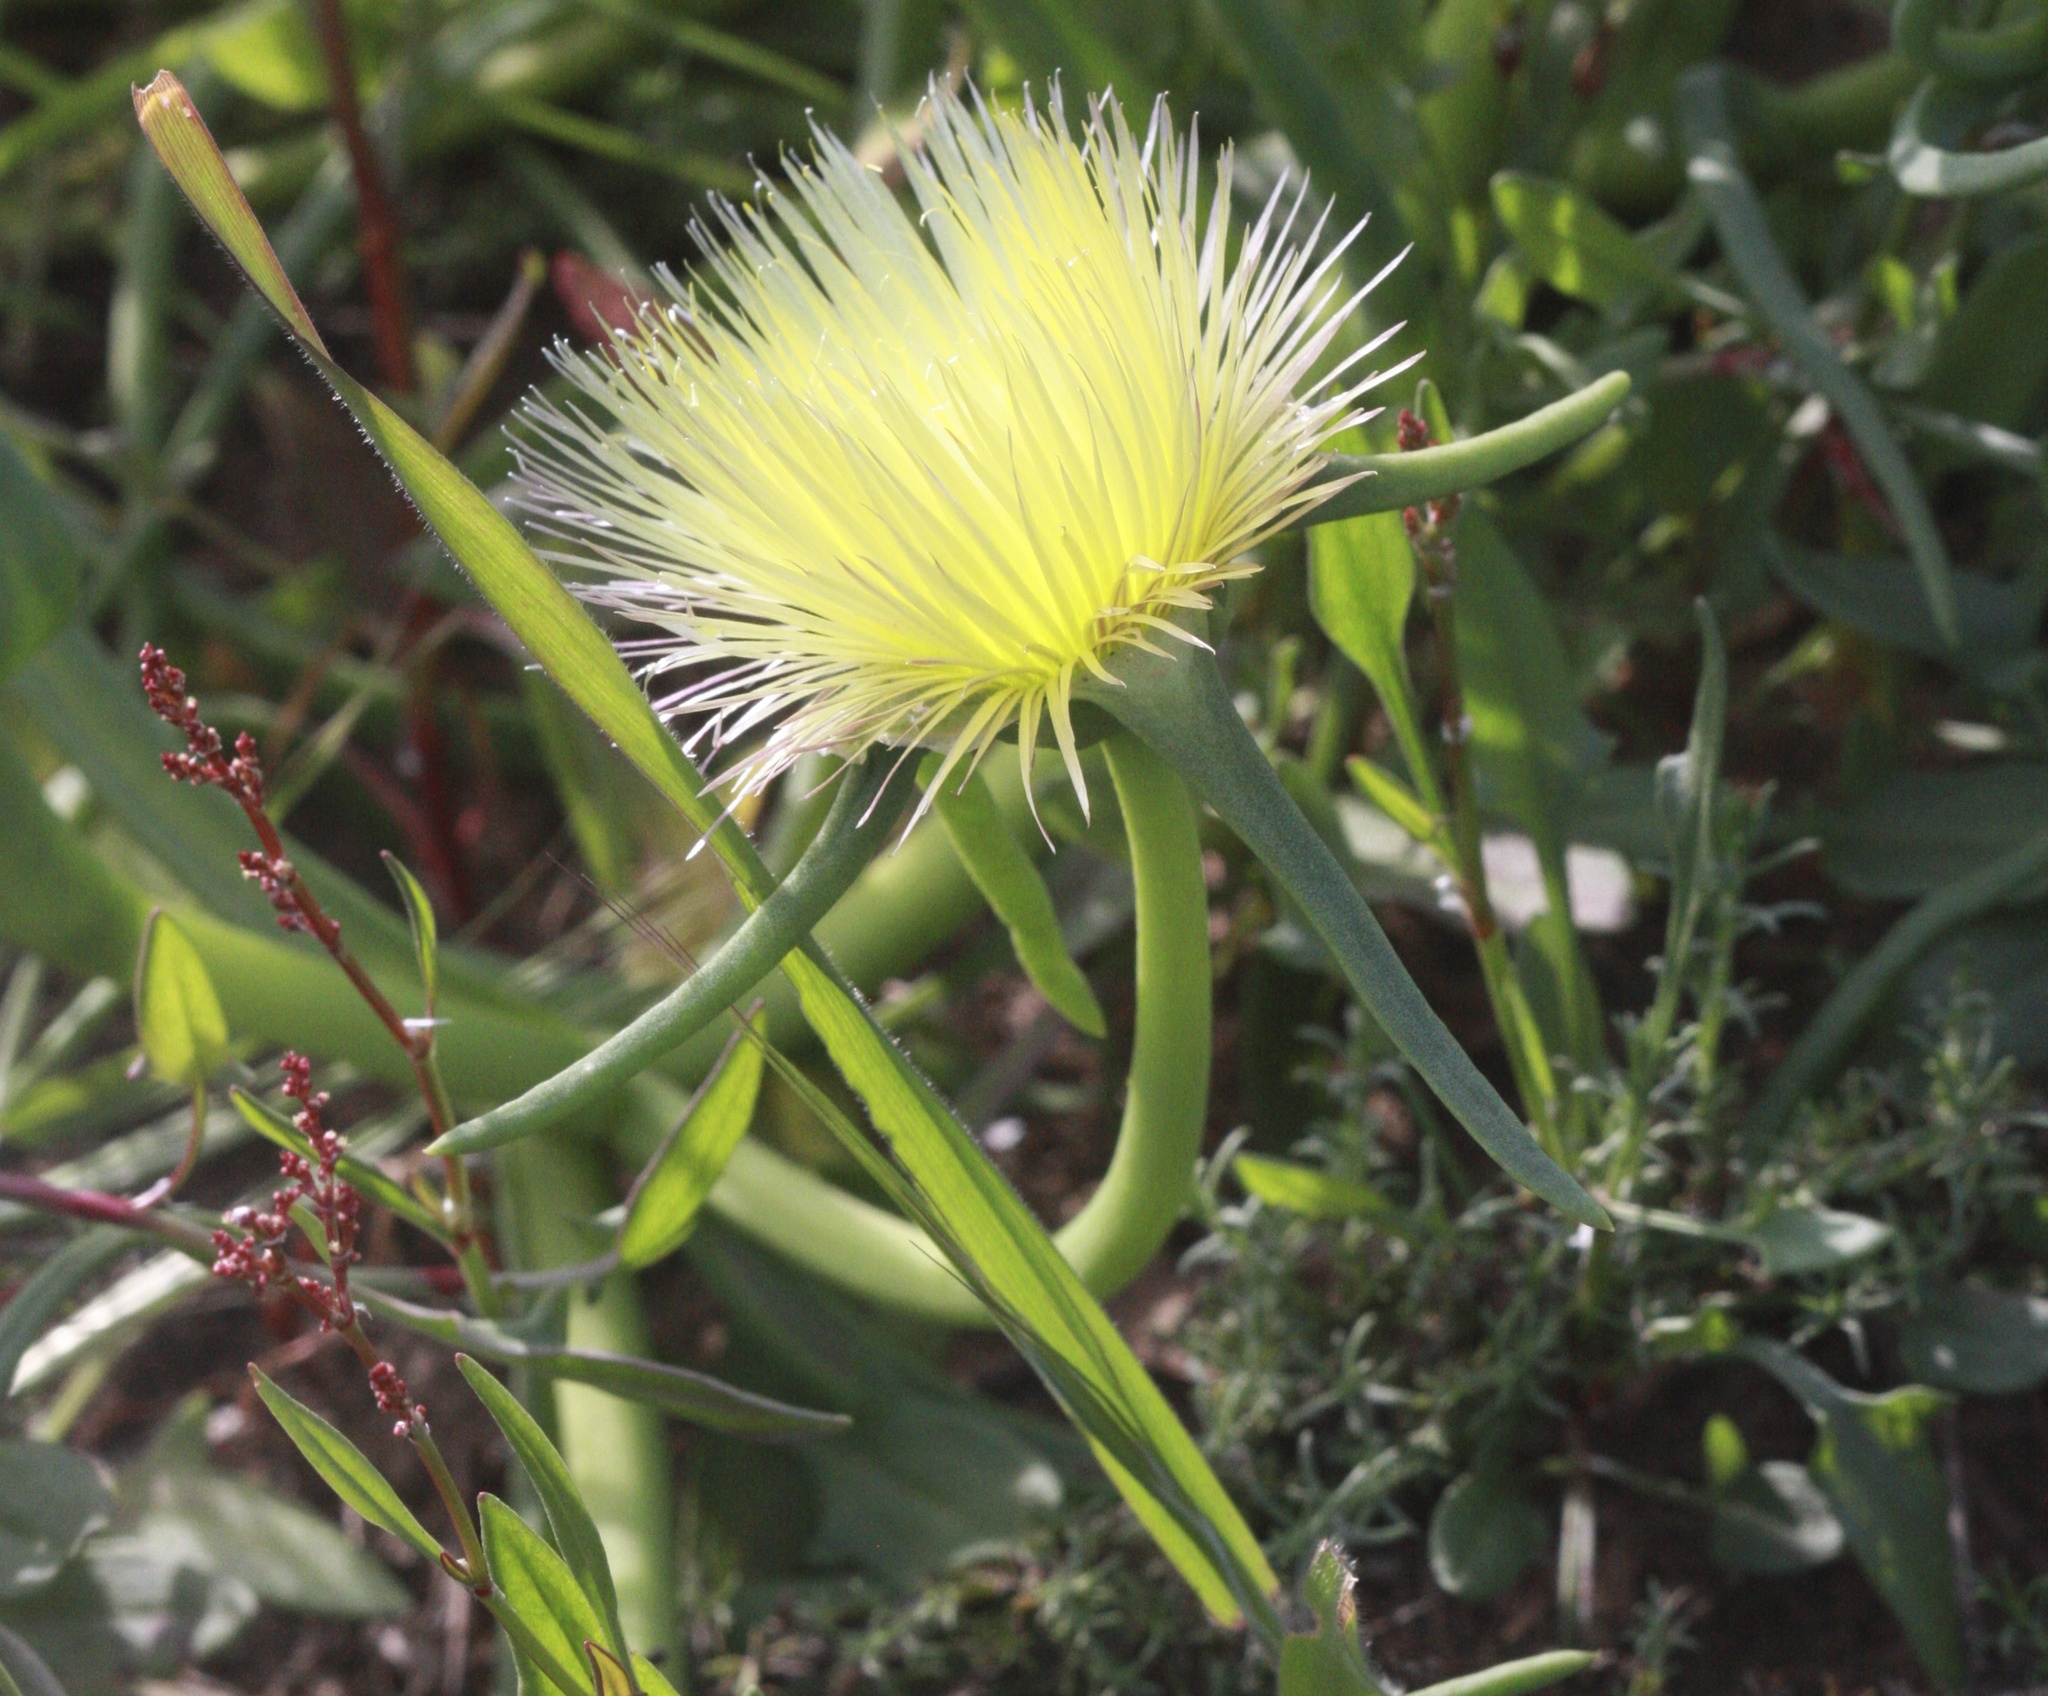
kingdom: Plantae
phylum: Tracheophyta
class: Magnoliopsida
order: Caryophyllales
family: Aizoaceae
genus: Conicosia
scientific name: Conicosia pugioniformis
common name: Narrow-leaved iceplant
